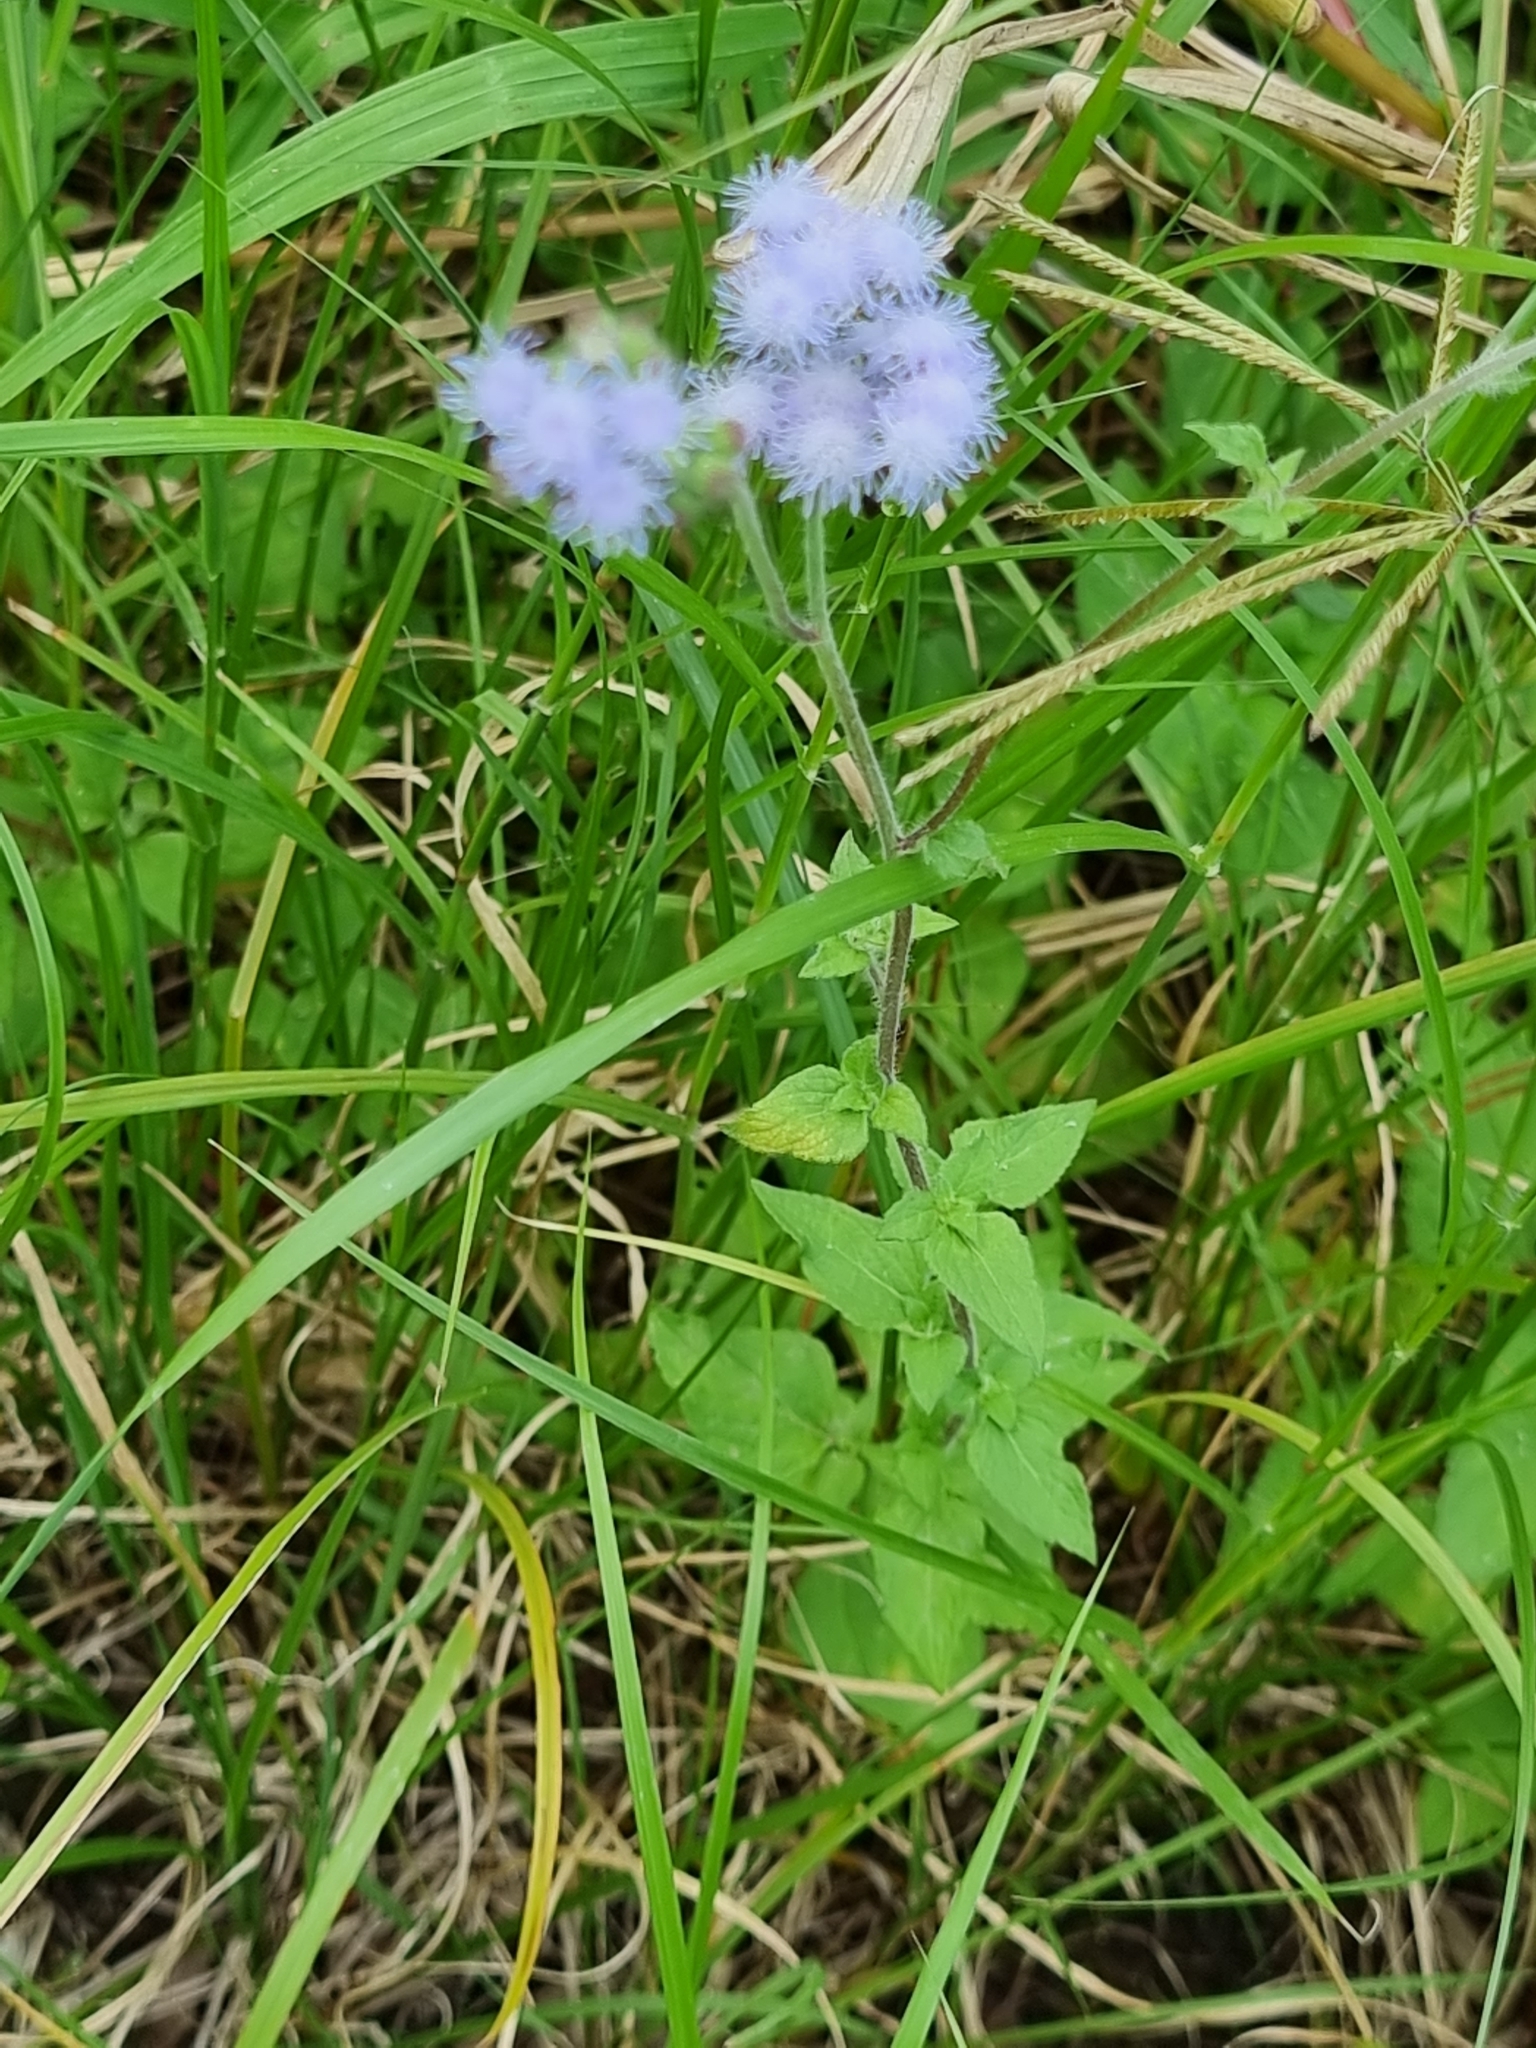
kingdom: Plantae
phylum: Tracheophyta
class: Magnoliopsida
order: Asterales
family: Asteraceae
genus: Ageratum
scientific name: Ageratum houstonianum
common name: Bluemink
